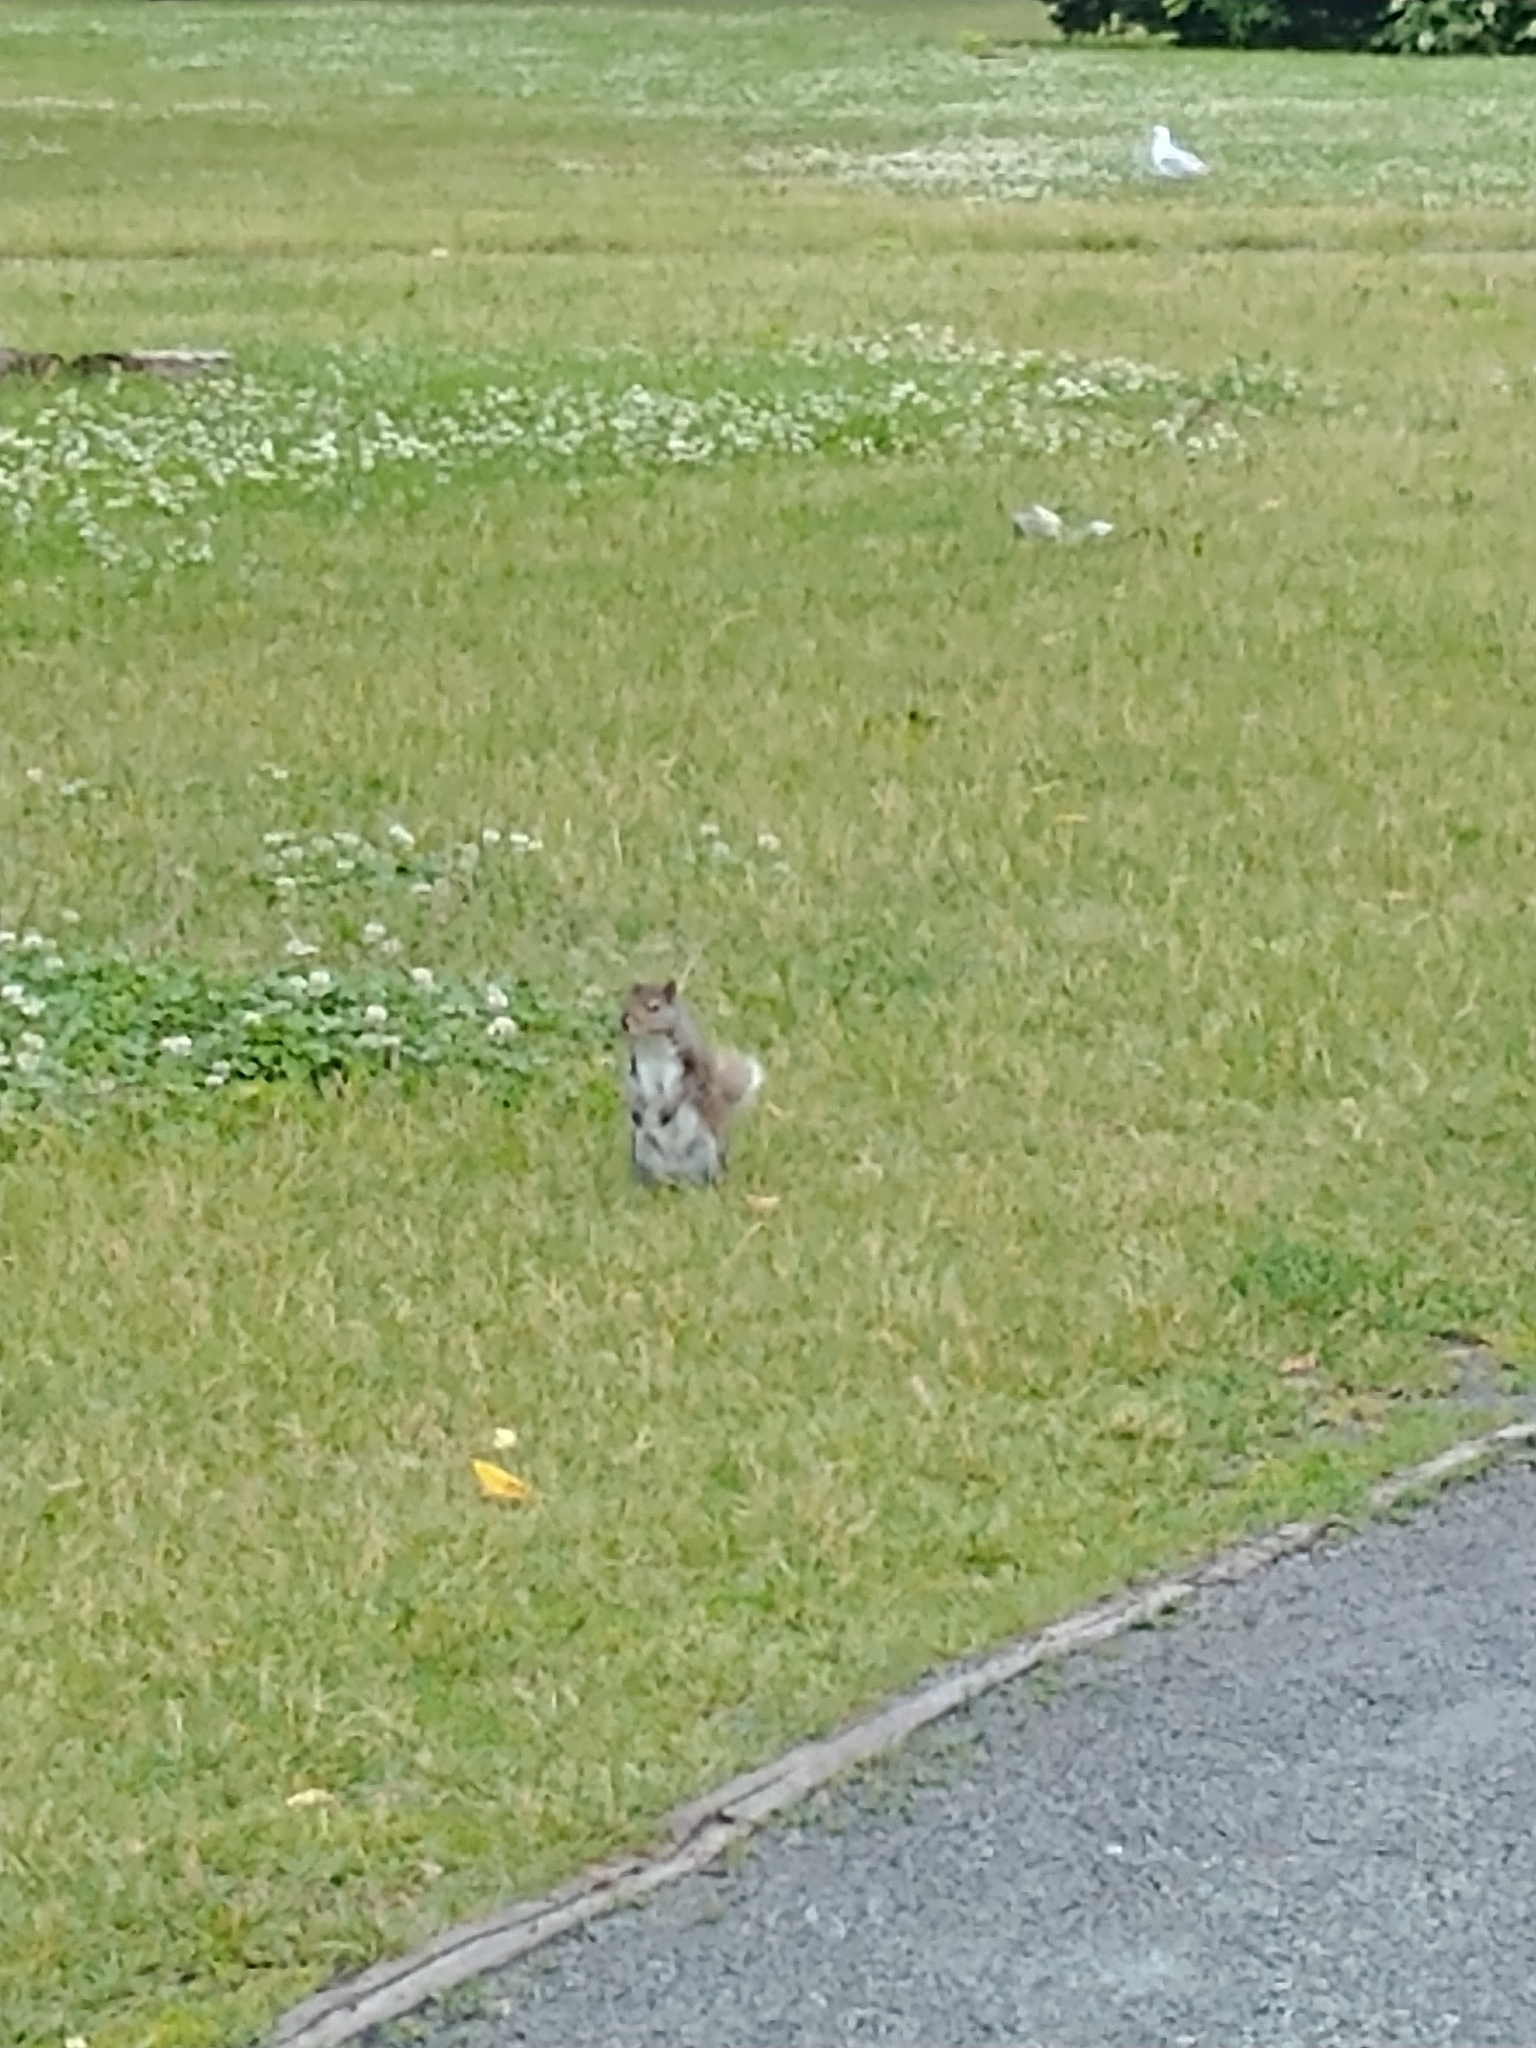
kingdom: Animalia
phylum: Chordata
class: Mammalia
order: Rodentia
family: Sciuridae
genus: Sciurus
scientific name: Sciurus carolinensis
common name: Eastern gray squirrel
